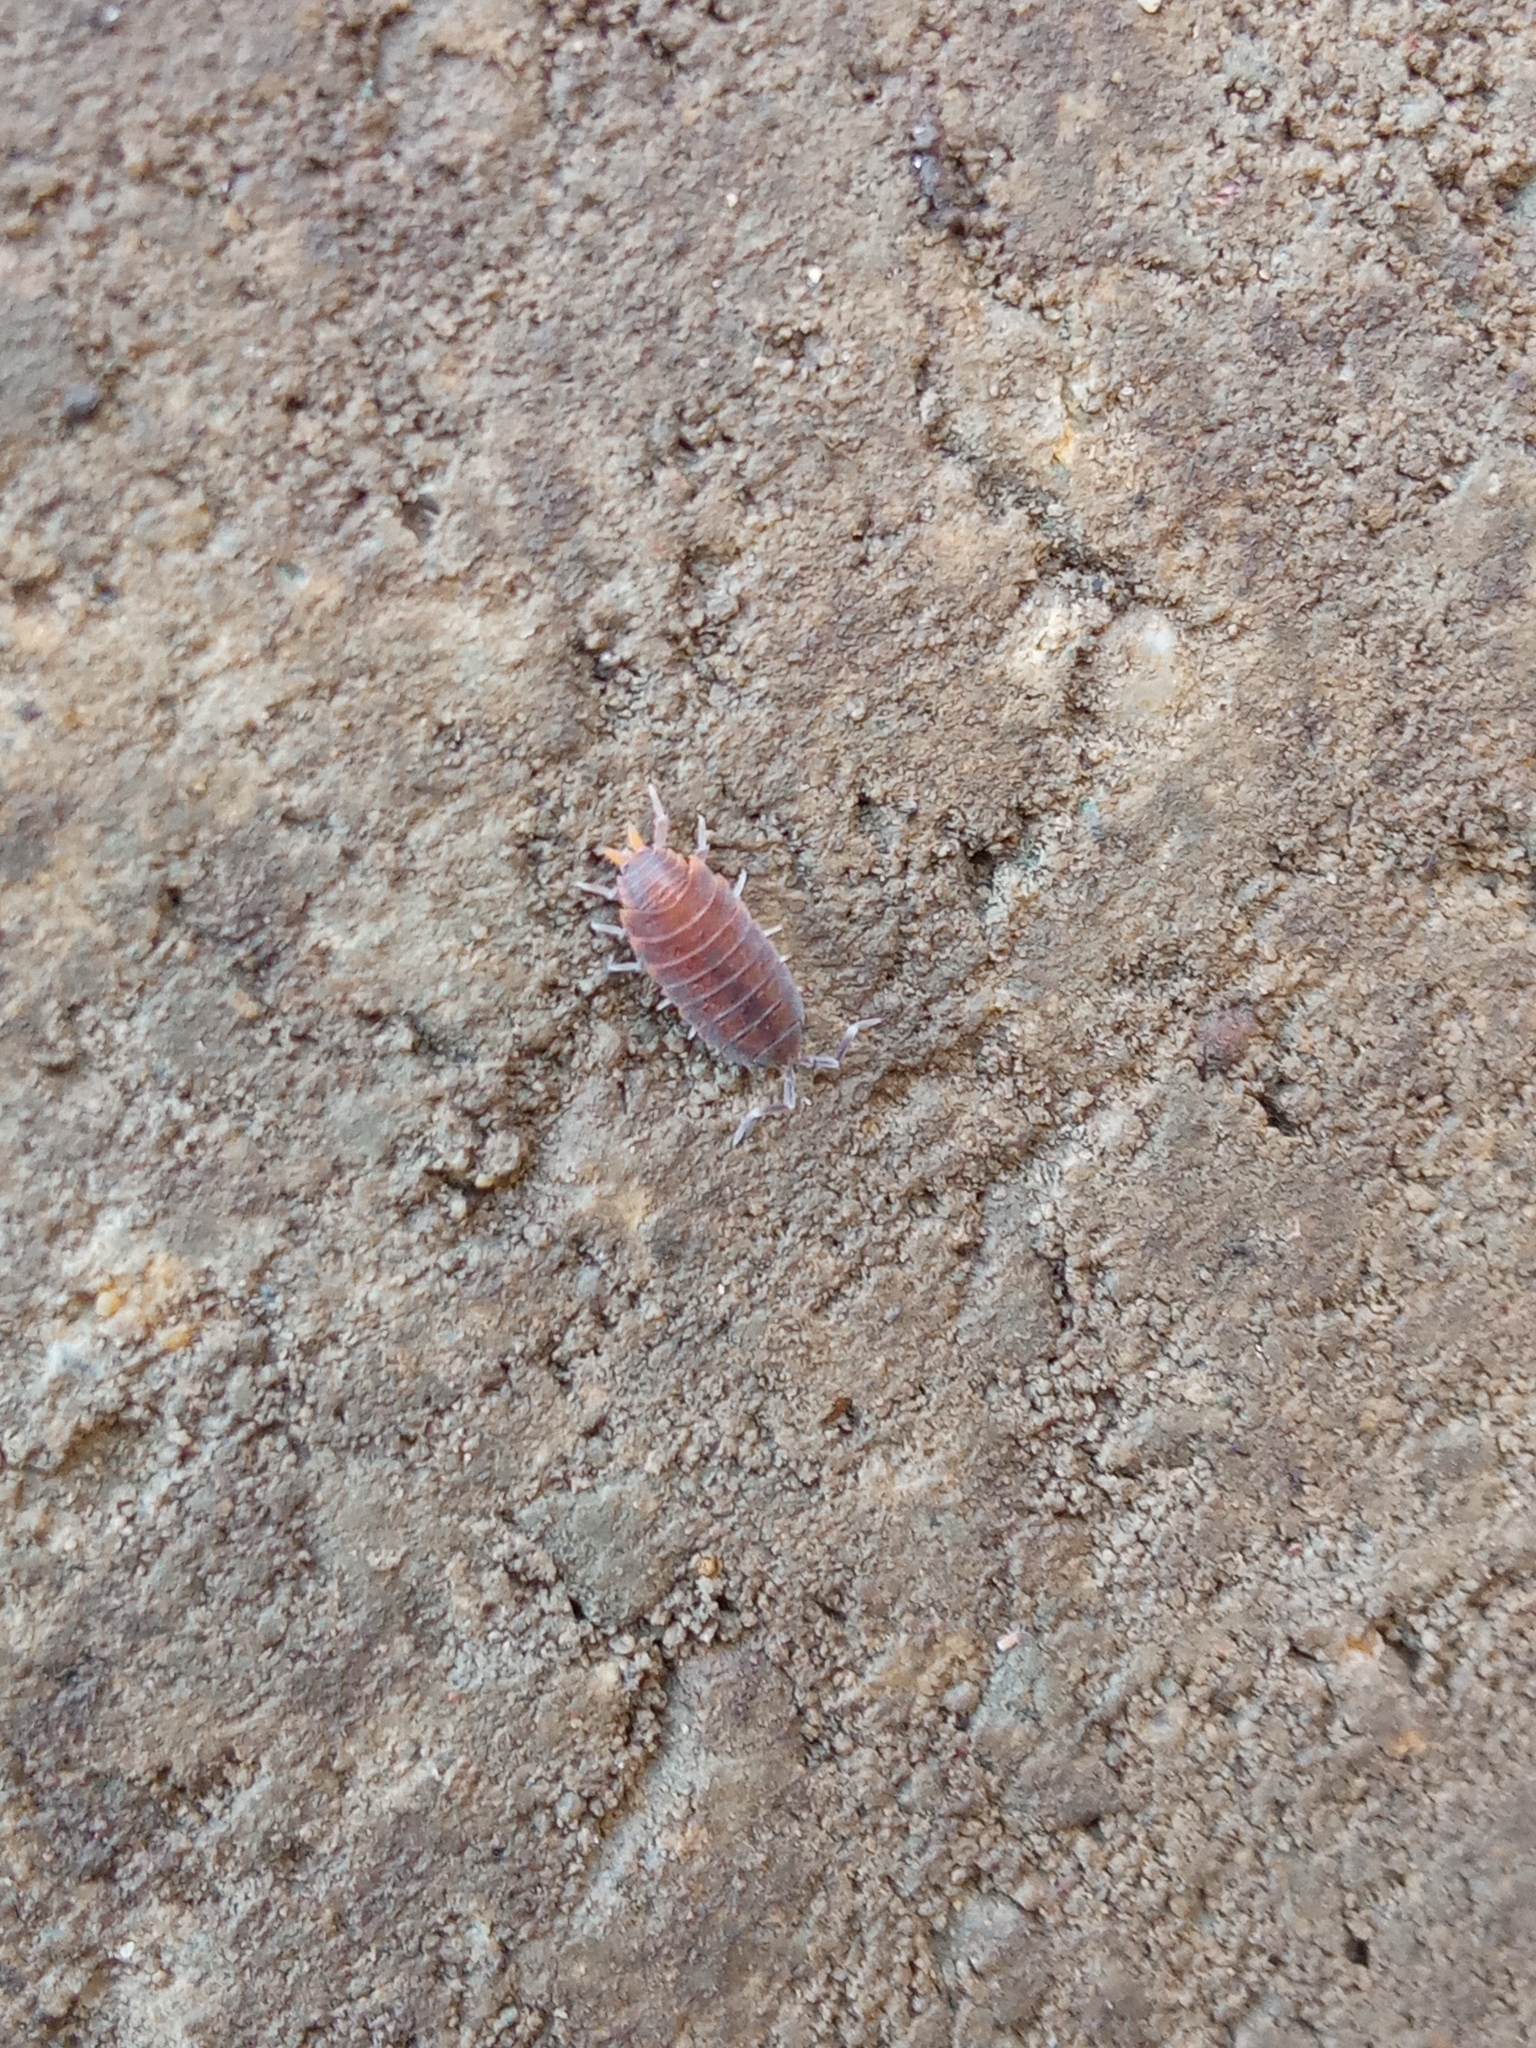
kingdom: Animalia
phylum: Arthropoda
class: Malacostraca
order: Isopoda
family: Porcellionidae
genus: Porcellionides
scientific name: Porcellionides pruinosus
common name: Plum woodlouse
